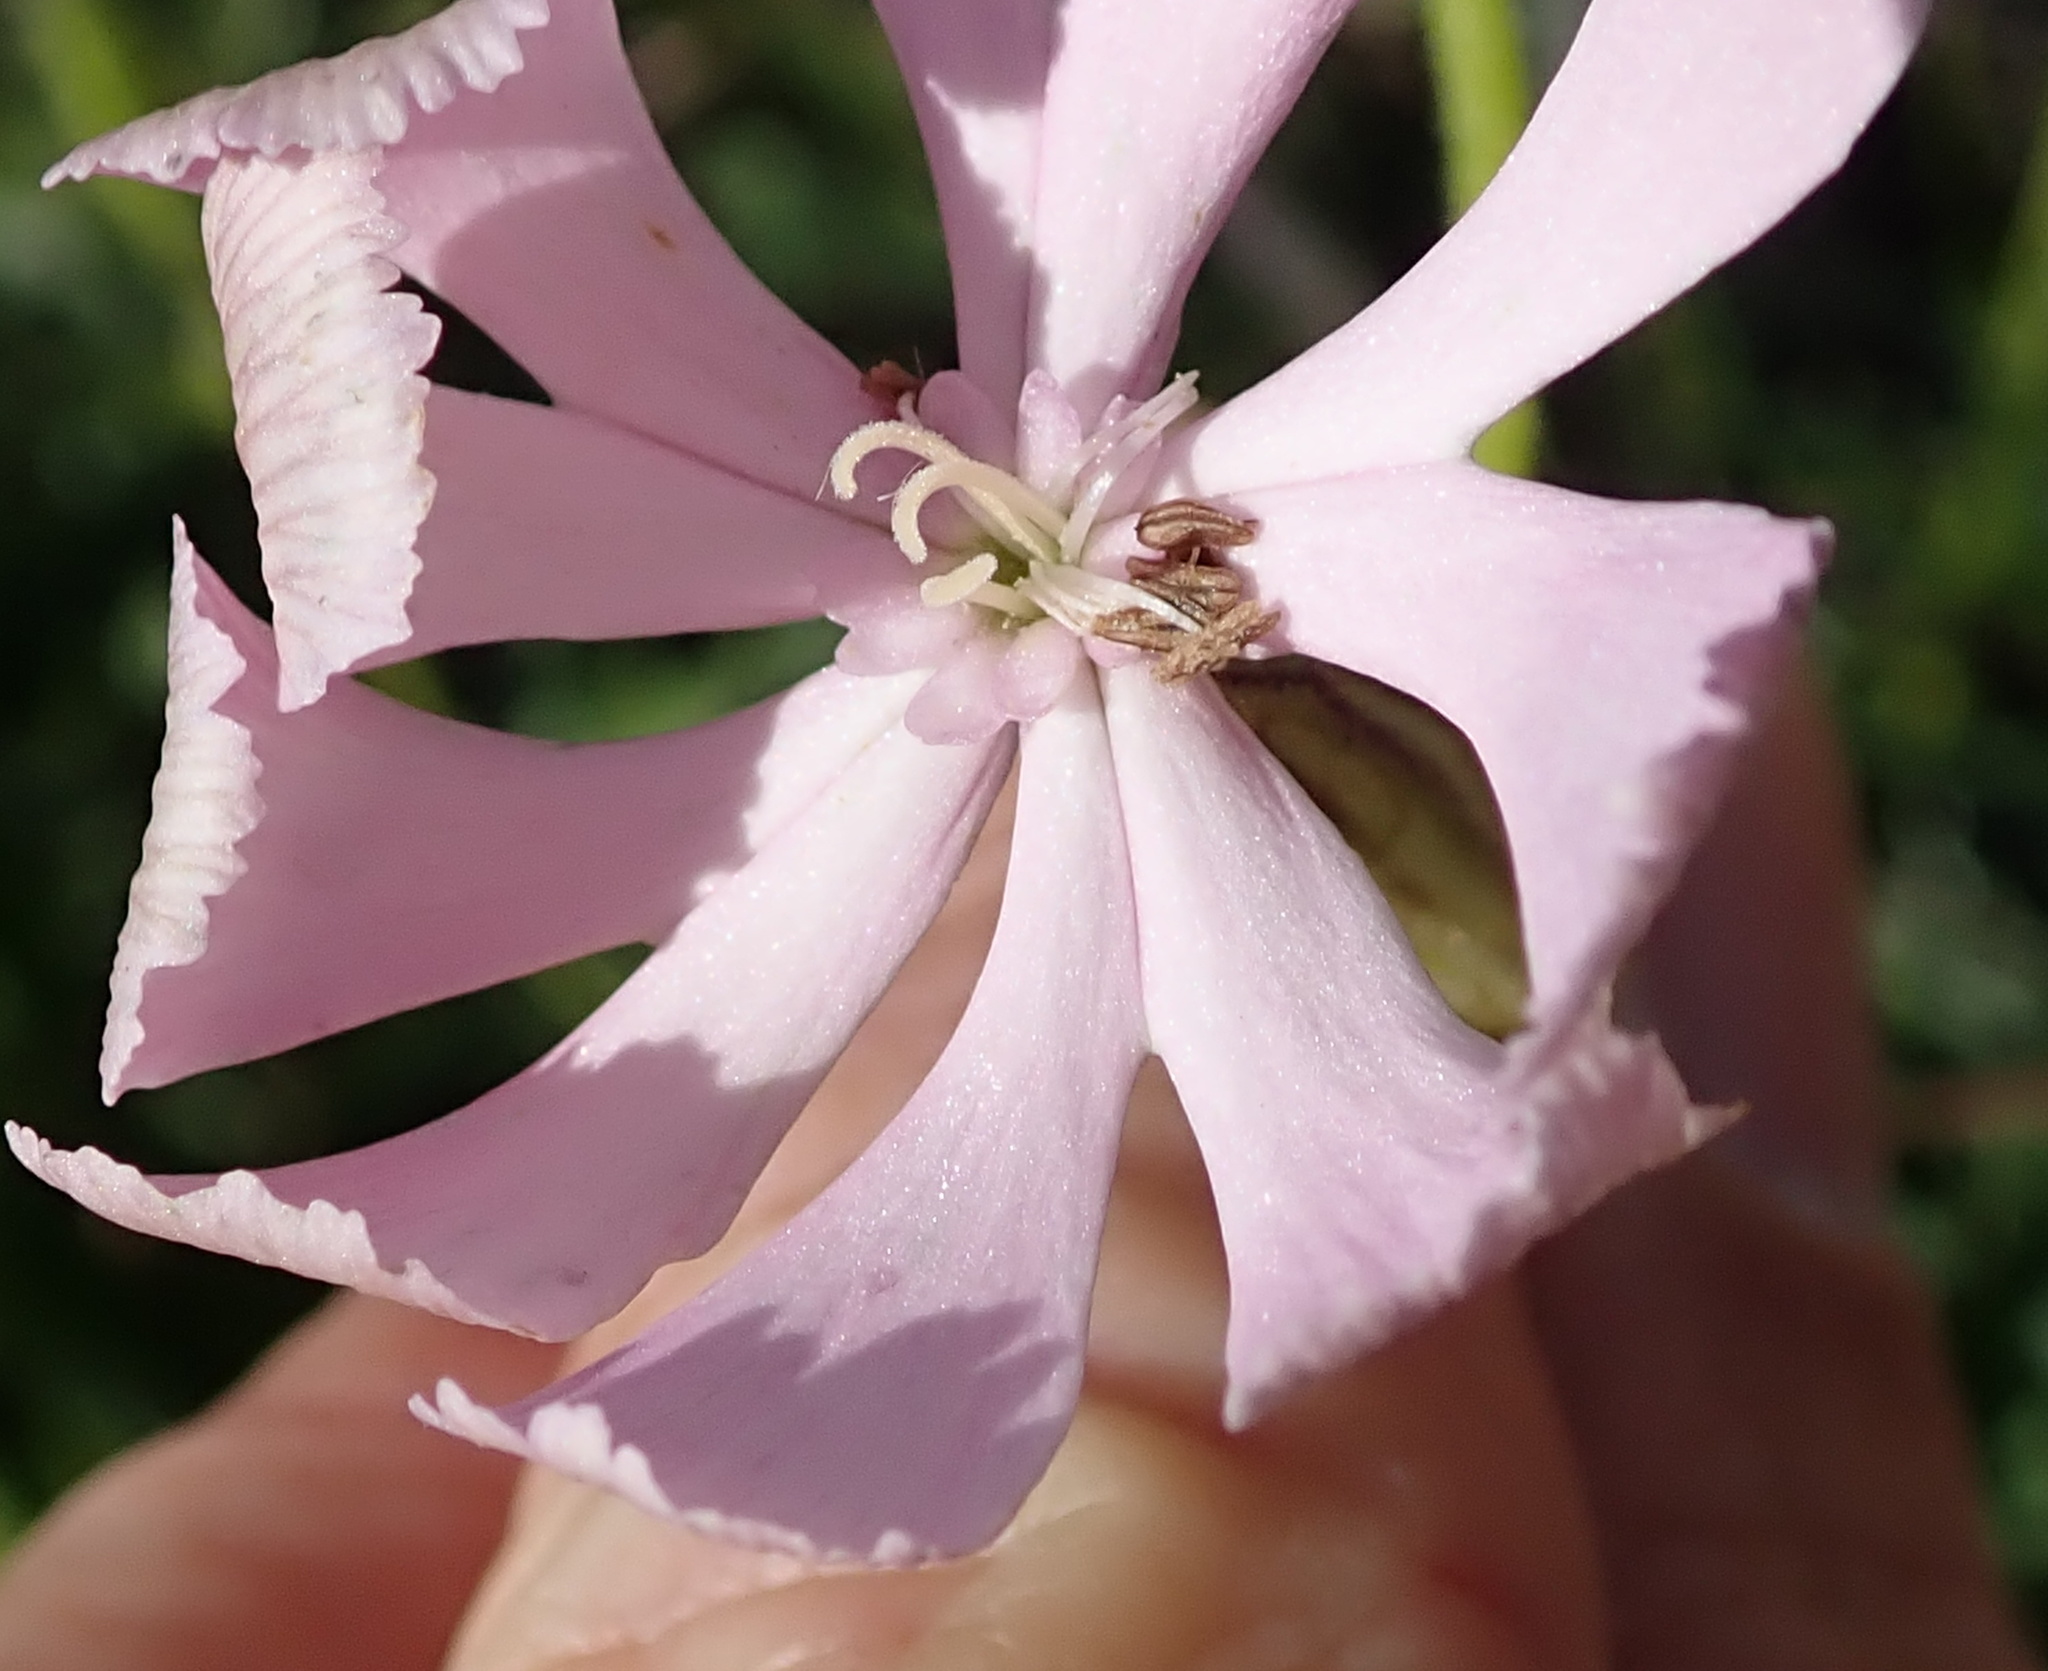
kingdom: Plantae
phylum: Tracheophyta
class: Magnoliopsida
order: Caryophyllales
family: Caryophyllaceae
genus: Silene
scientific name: Silene undulata
